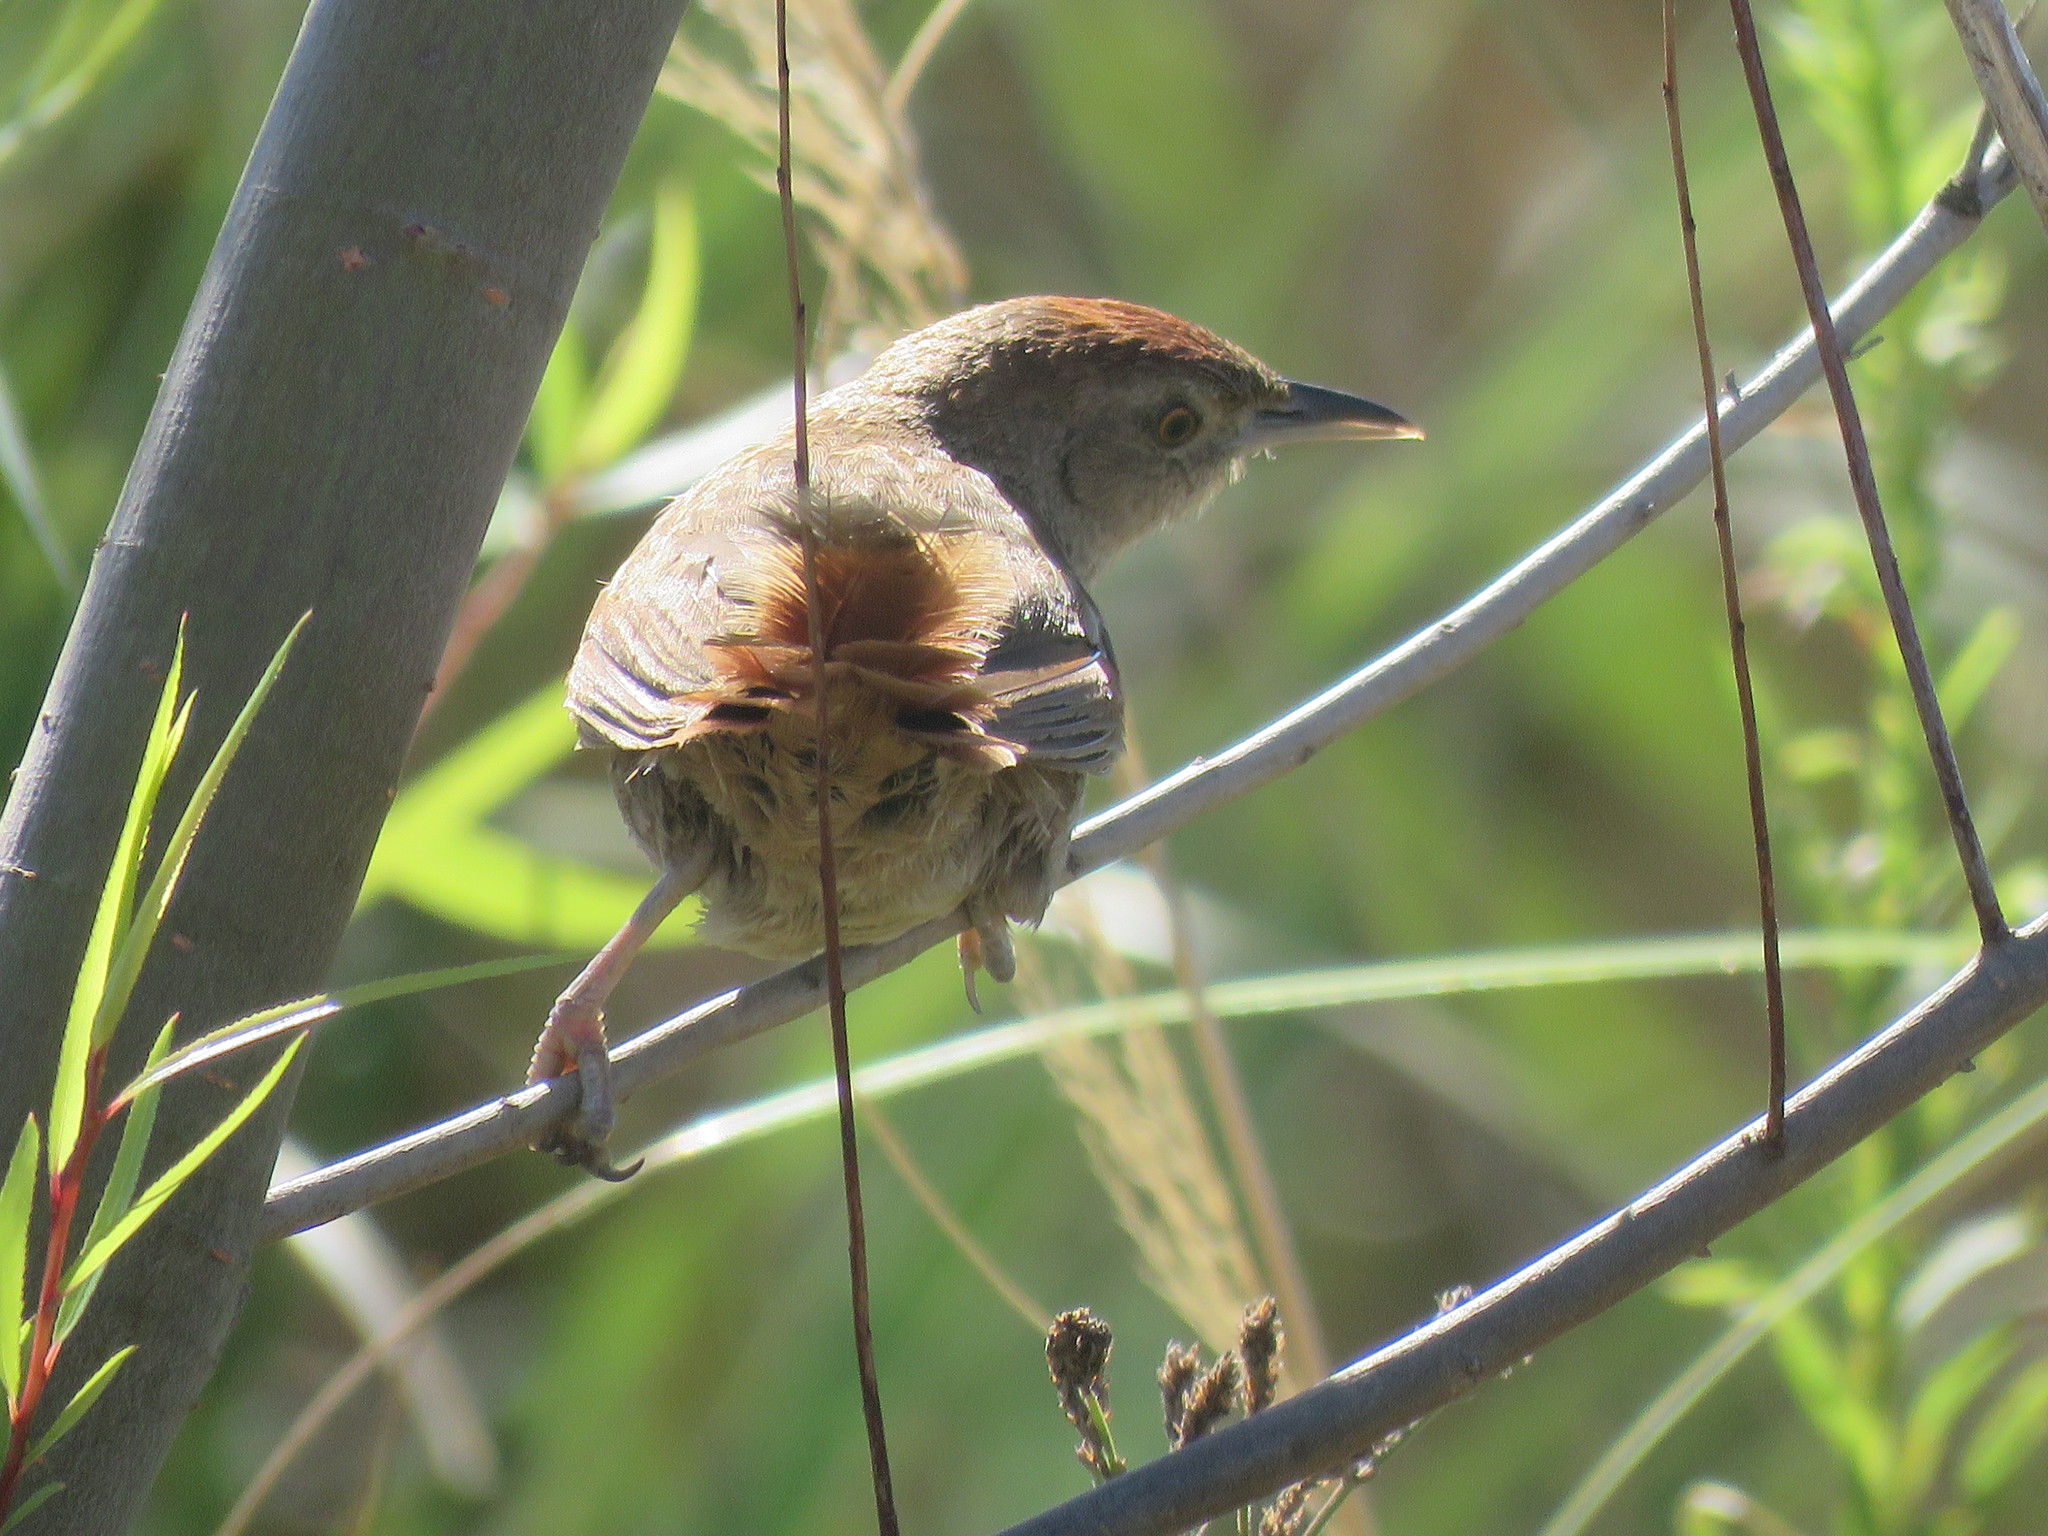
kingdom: Animalia
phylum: Chordata
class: Aves
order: Passeriformes
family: Furnariidae
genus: Phacellodomus
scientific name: Phacellodomus striaticollis
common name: Freckle-breasted thornbird
